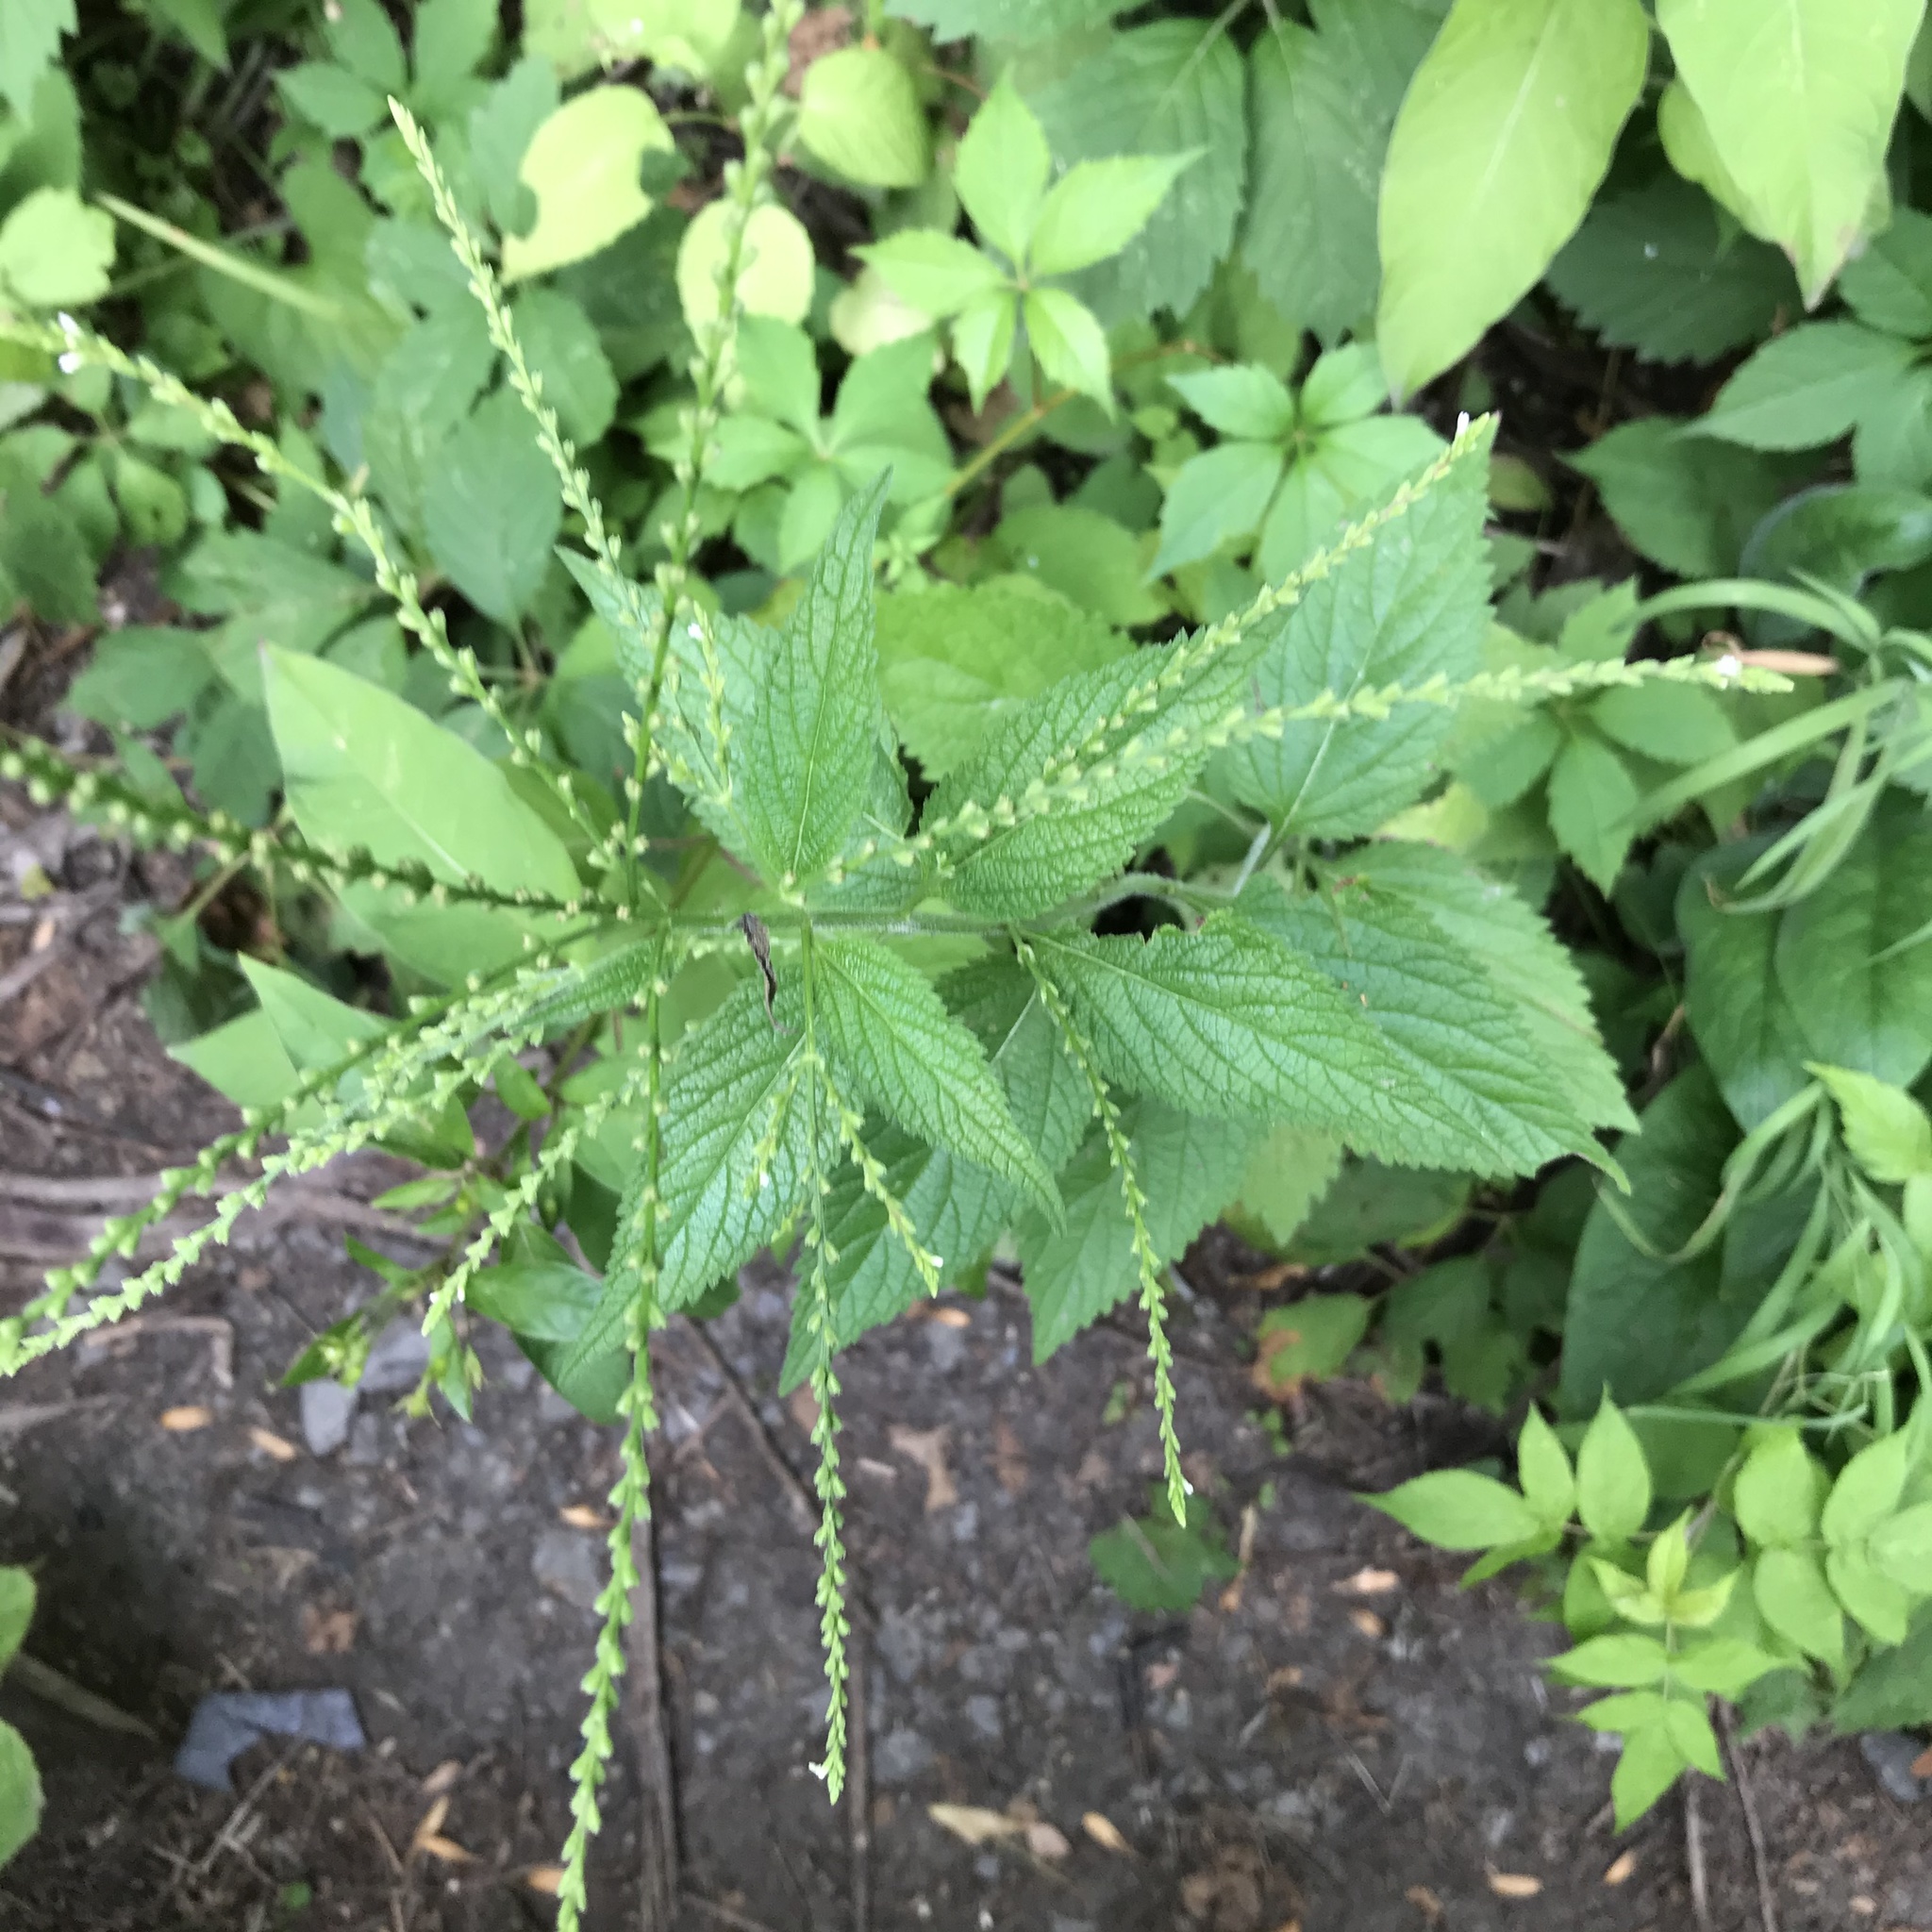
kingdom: Plantae
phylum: Tracheophyta
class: Magnoliopsida
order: Lamiales
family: Verbenaceae
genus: Verbena
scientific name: Verbena urticifolia
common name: Nettle-leaved vervain
